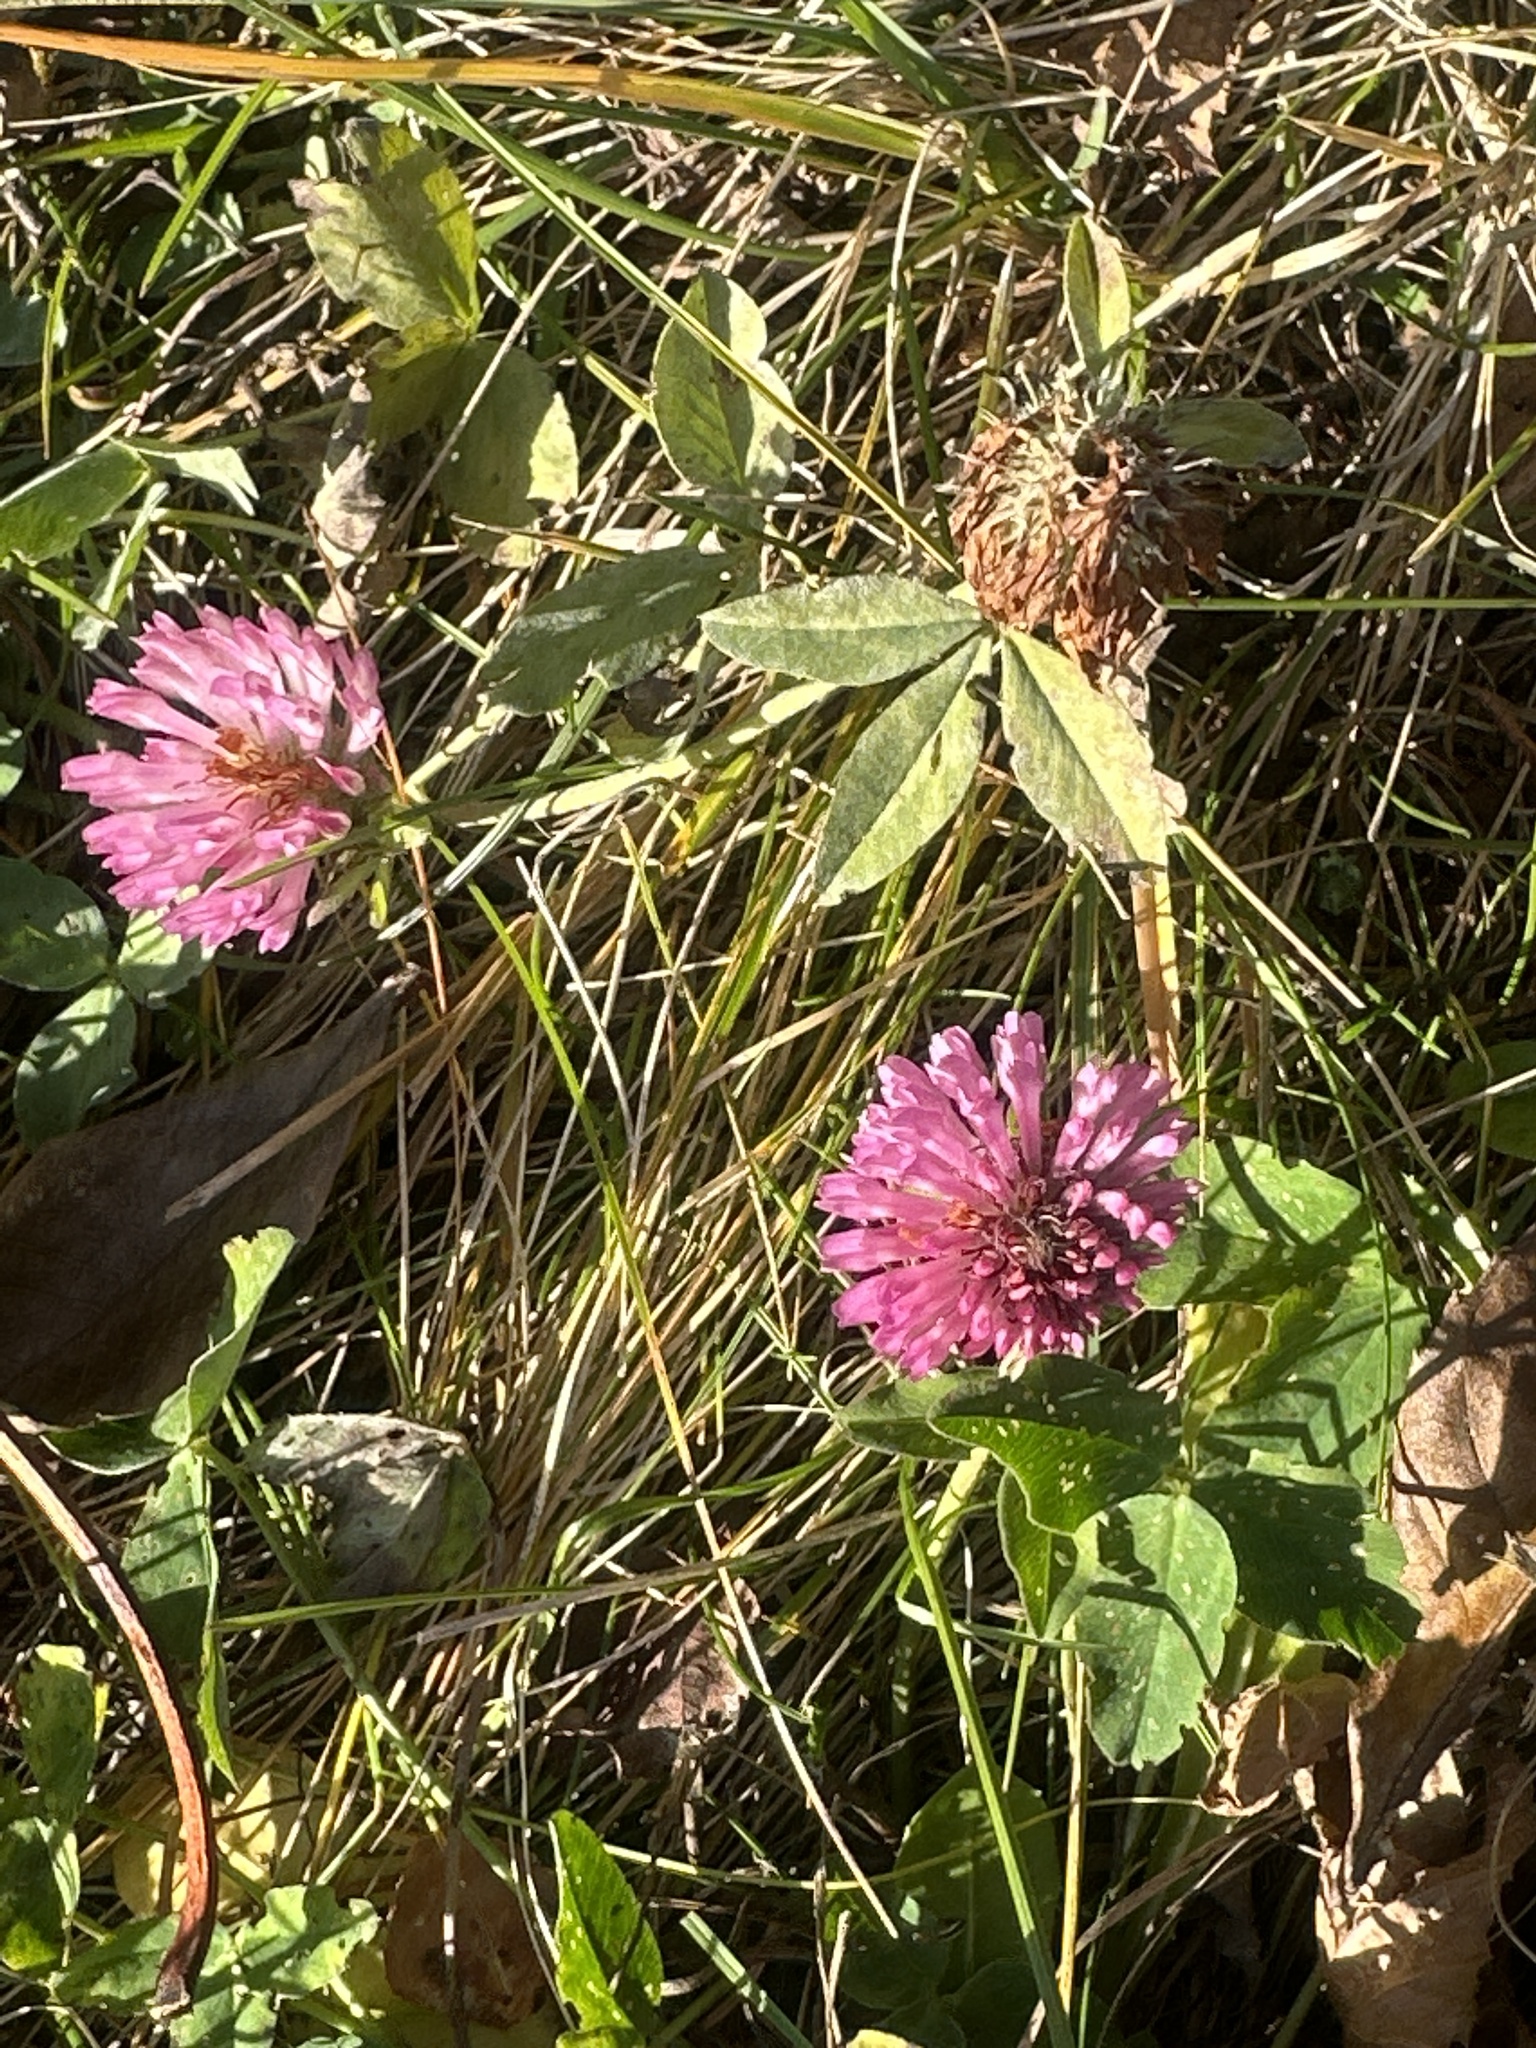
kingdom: Plantae
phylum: Tracheophyta
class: Magnoliopsida
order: Fabales
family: Fabaceae
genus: Trifolium
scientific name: Trifolium pratense
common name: Red clover
